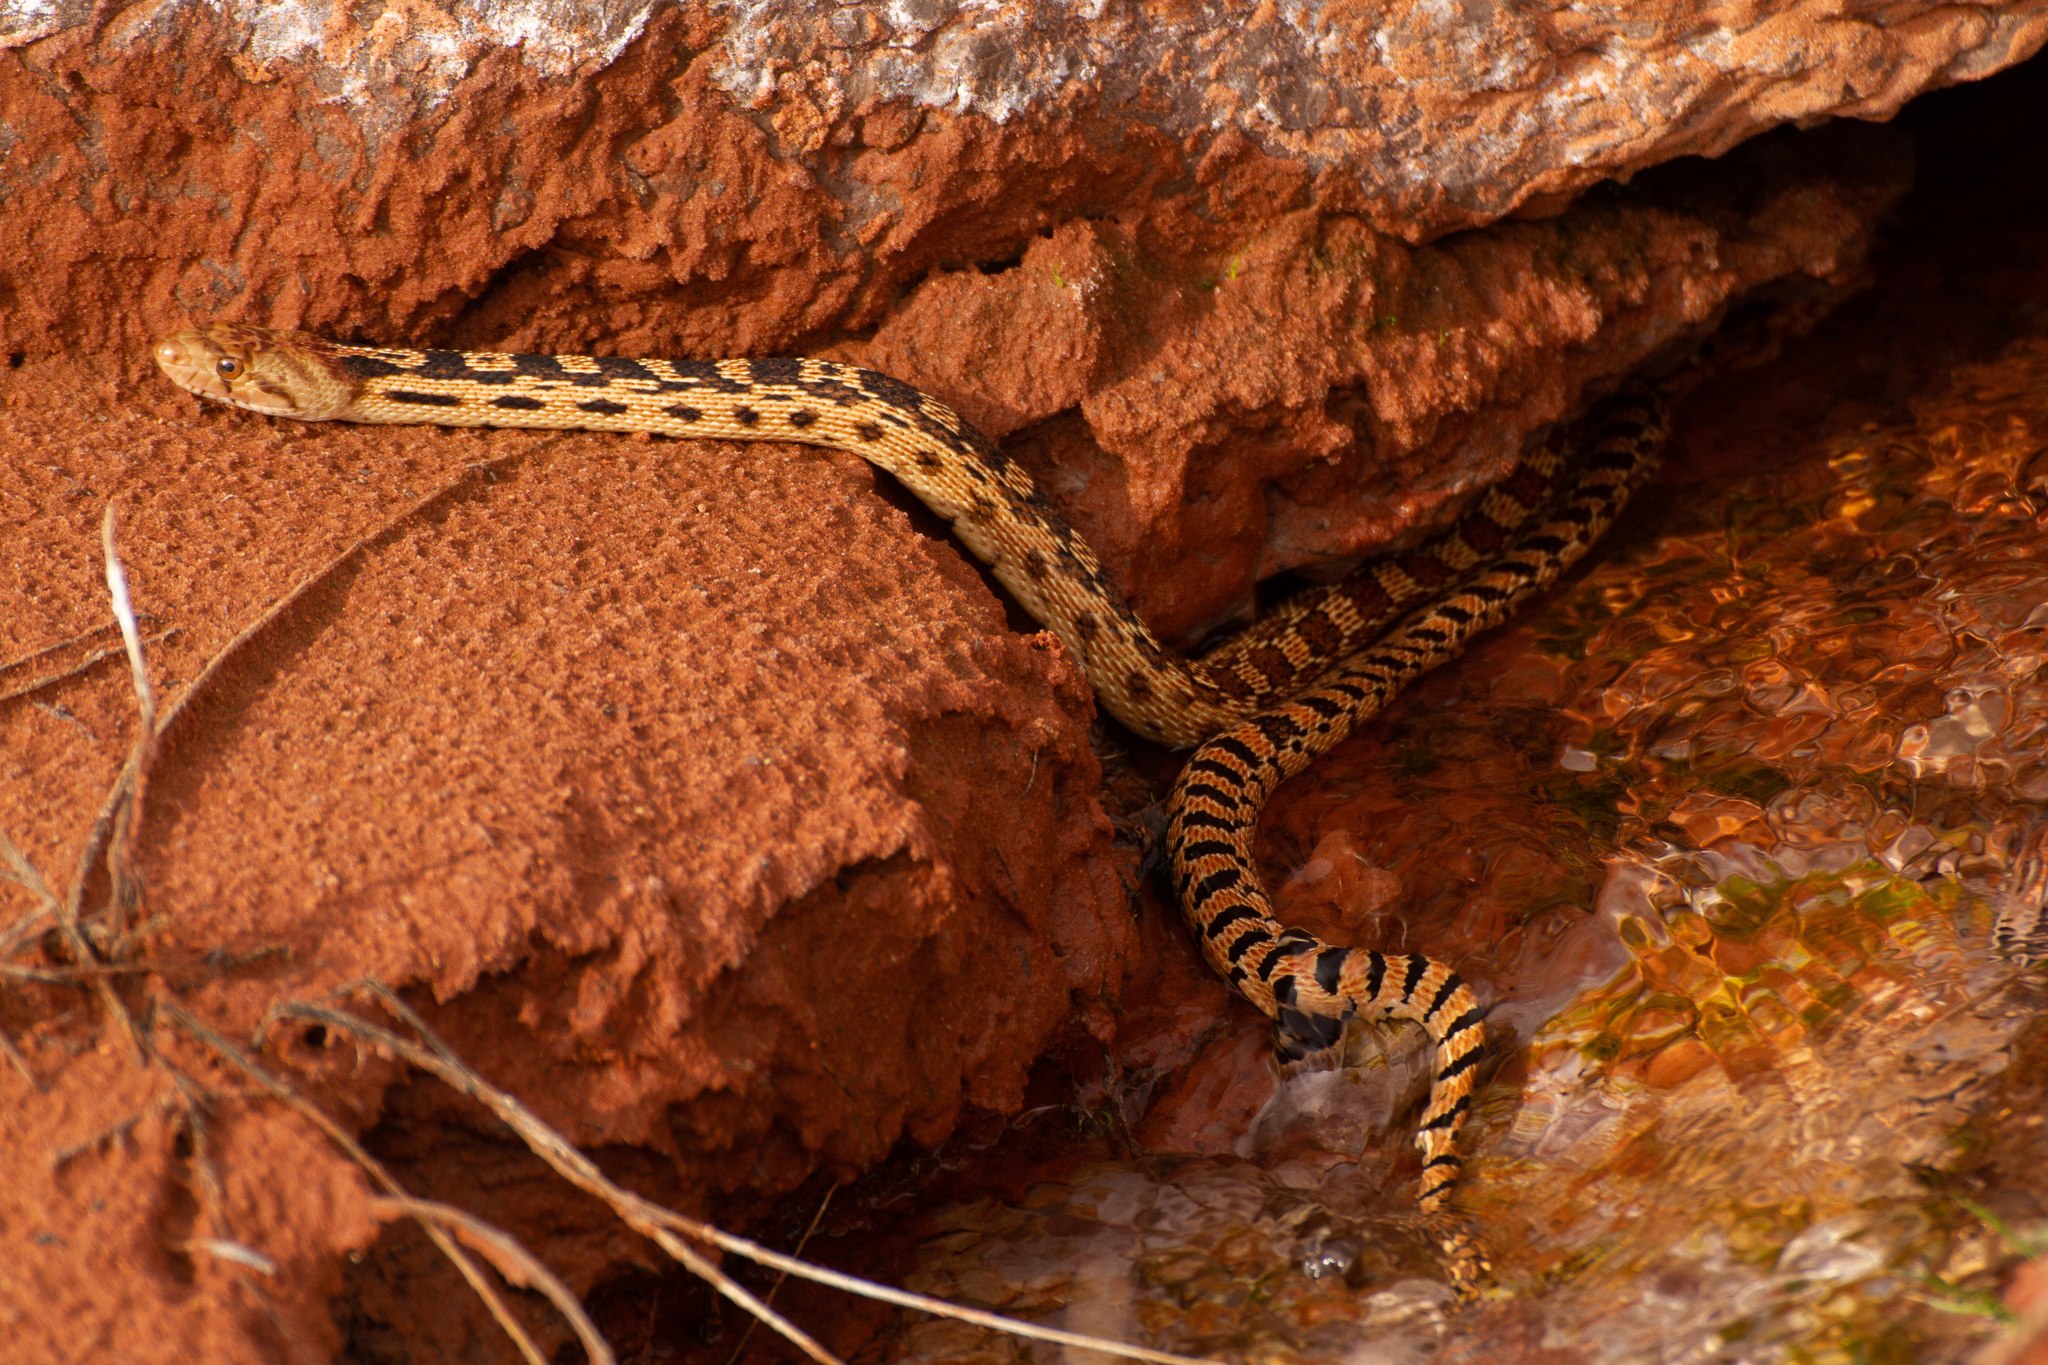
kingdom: Animalia
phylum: Chordata
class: Squamata
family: Colubridae
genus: Pituophis
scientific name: Pituophis catenifer
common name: Gopher snake
